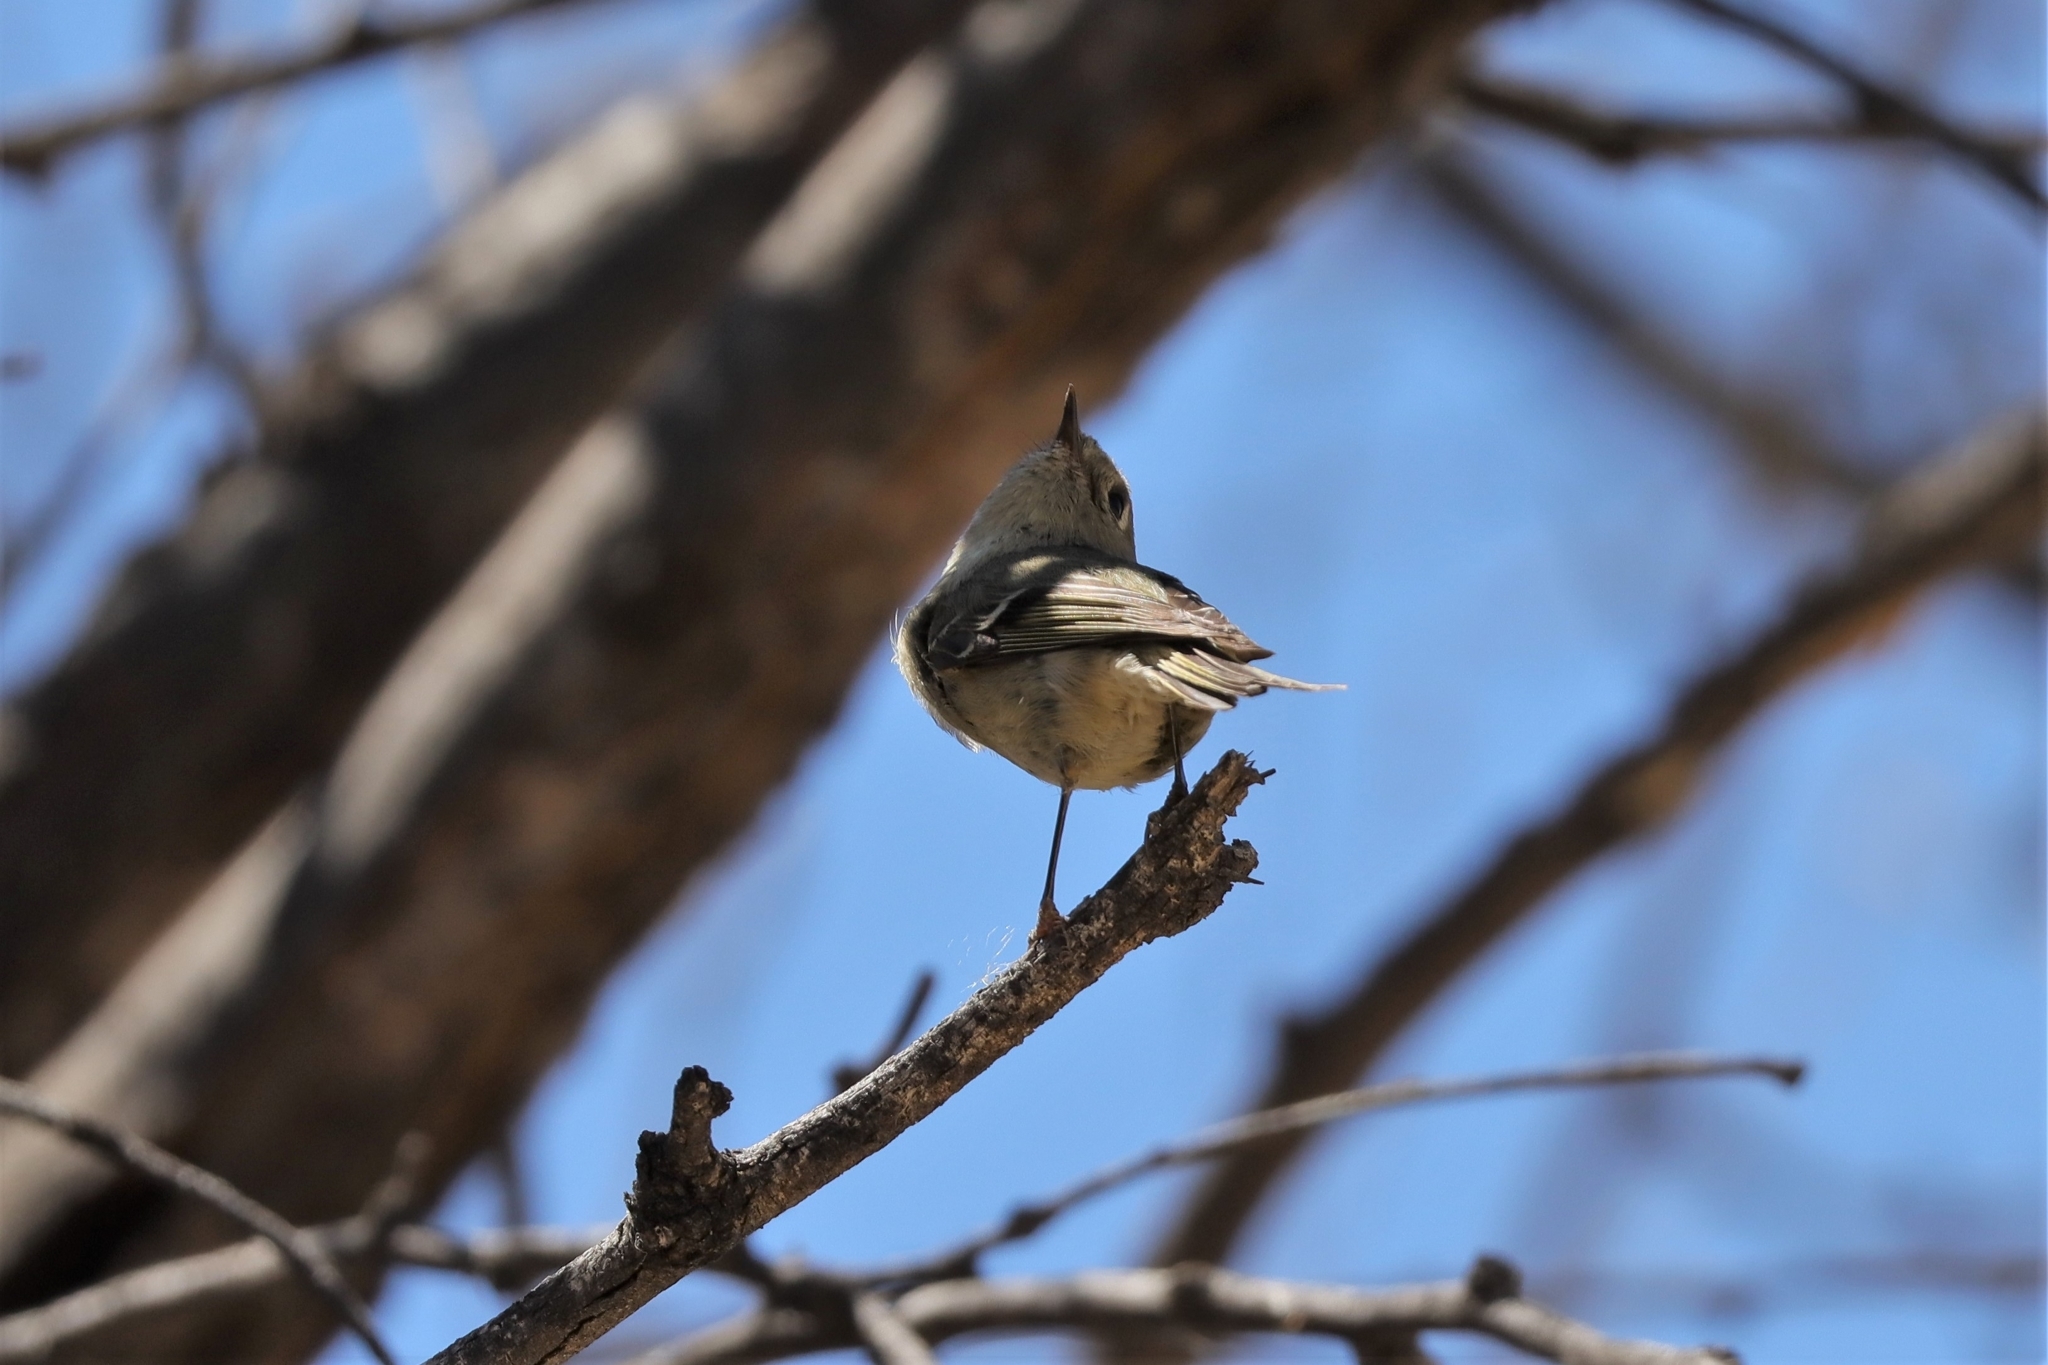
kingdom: Animalia
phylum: Chordata
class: Aves
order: Passeriformes
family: Regulidae
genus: Regulus
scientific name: Regulus calendula
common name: Ruby-crowned kinglet
